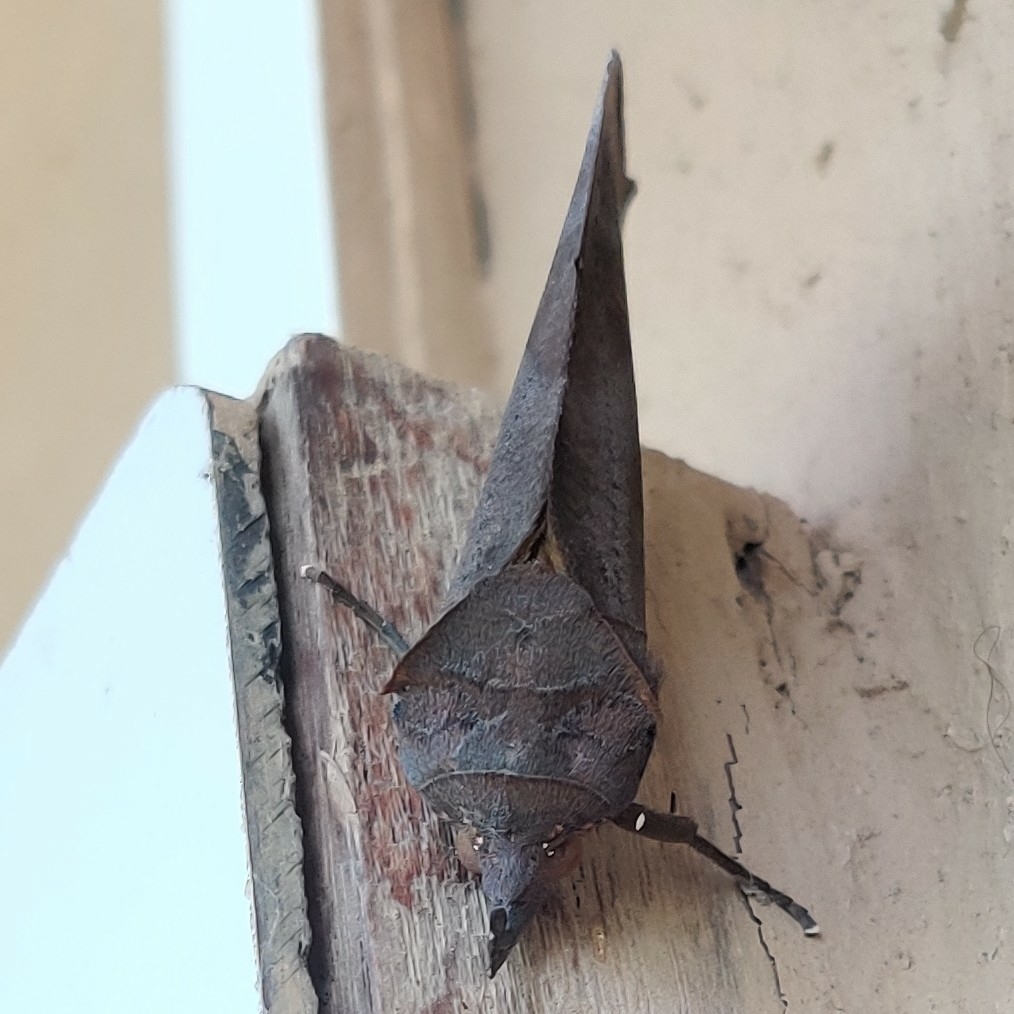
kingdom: Animalia
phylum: Arthropoda
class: Insecta
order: Lepidoptera
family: Erebidae
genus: Eudocima
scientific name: Eudocima tyrannus
